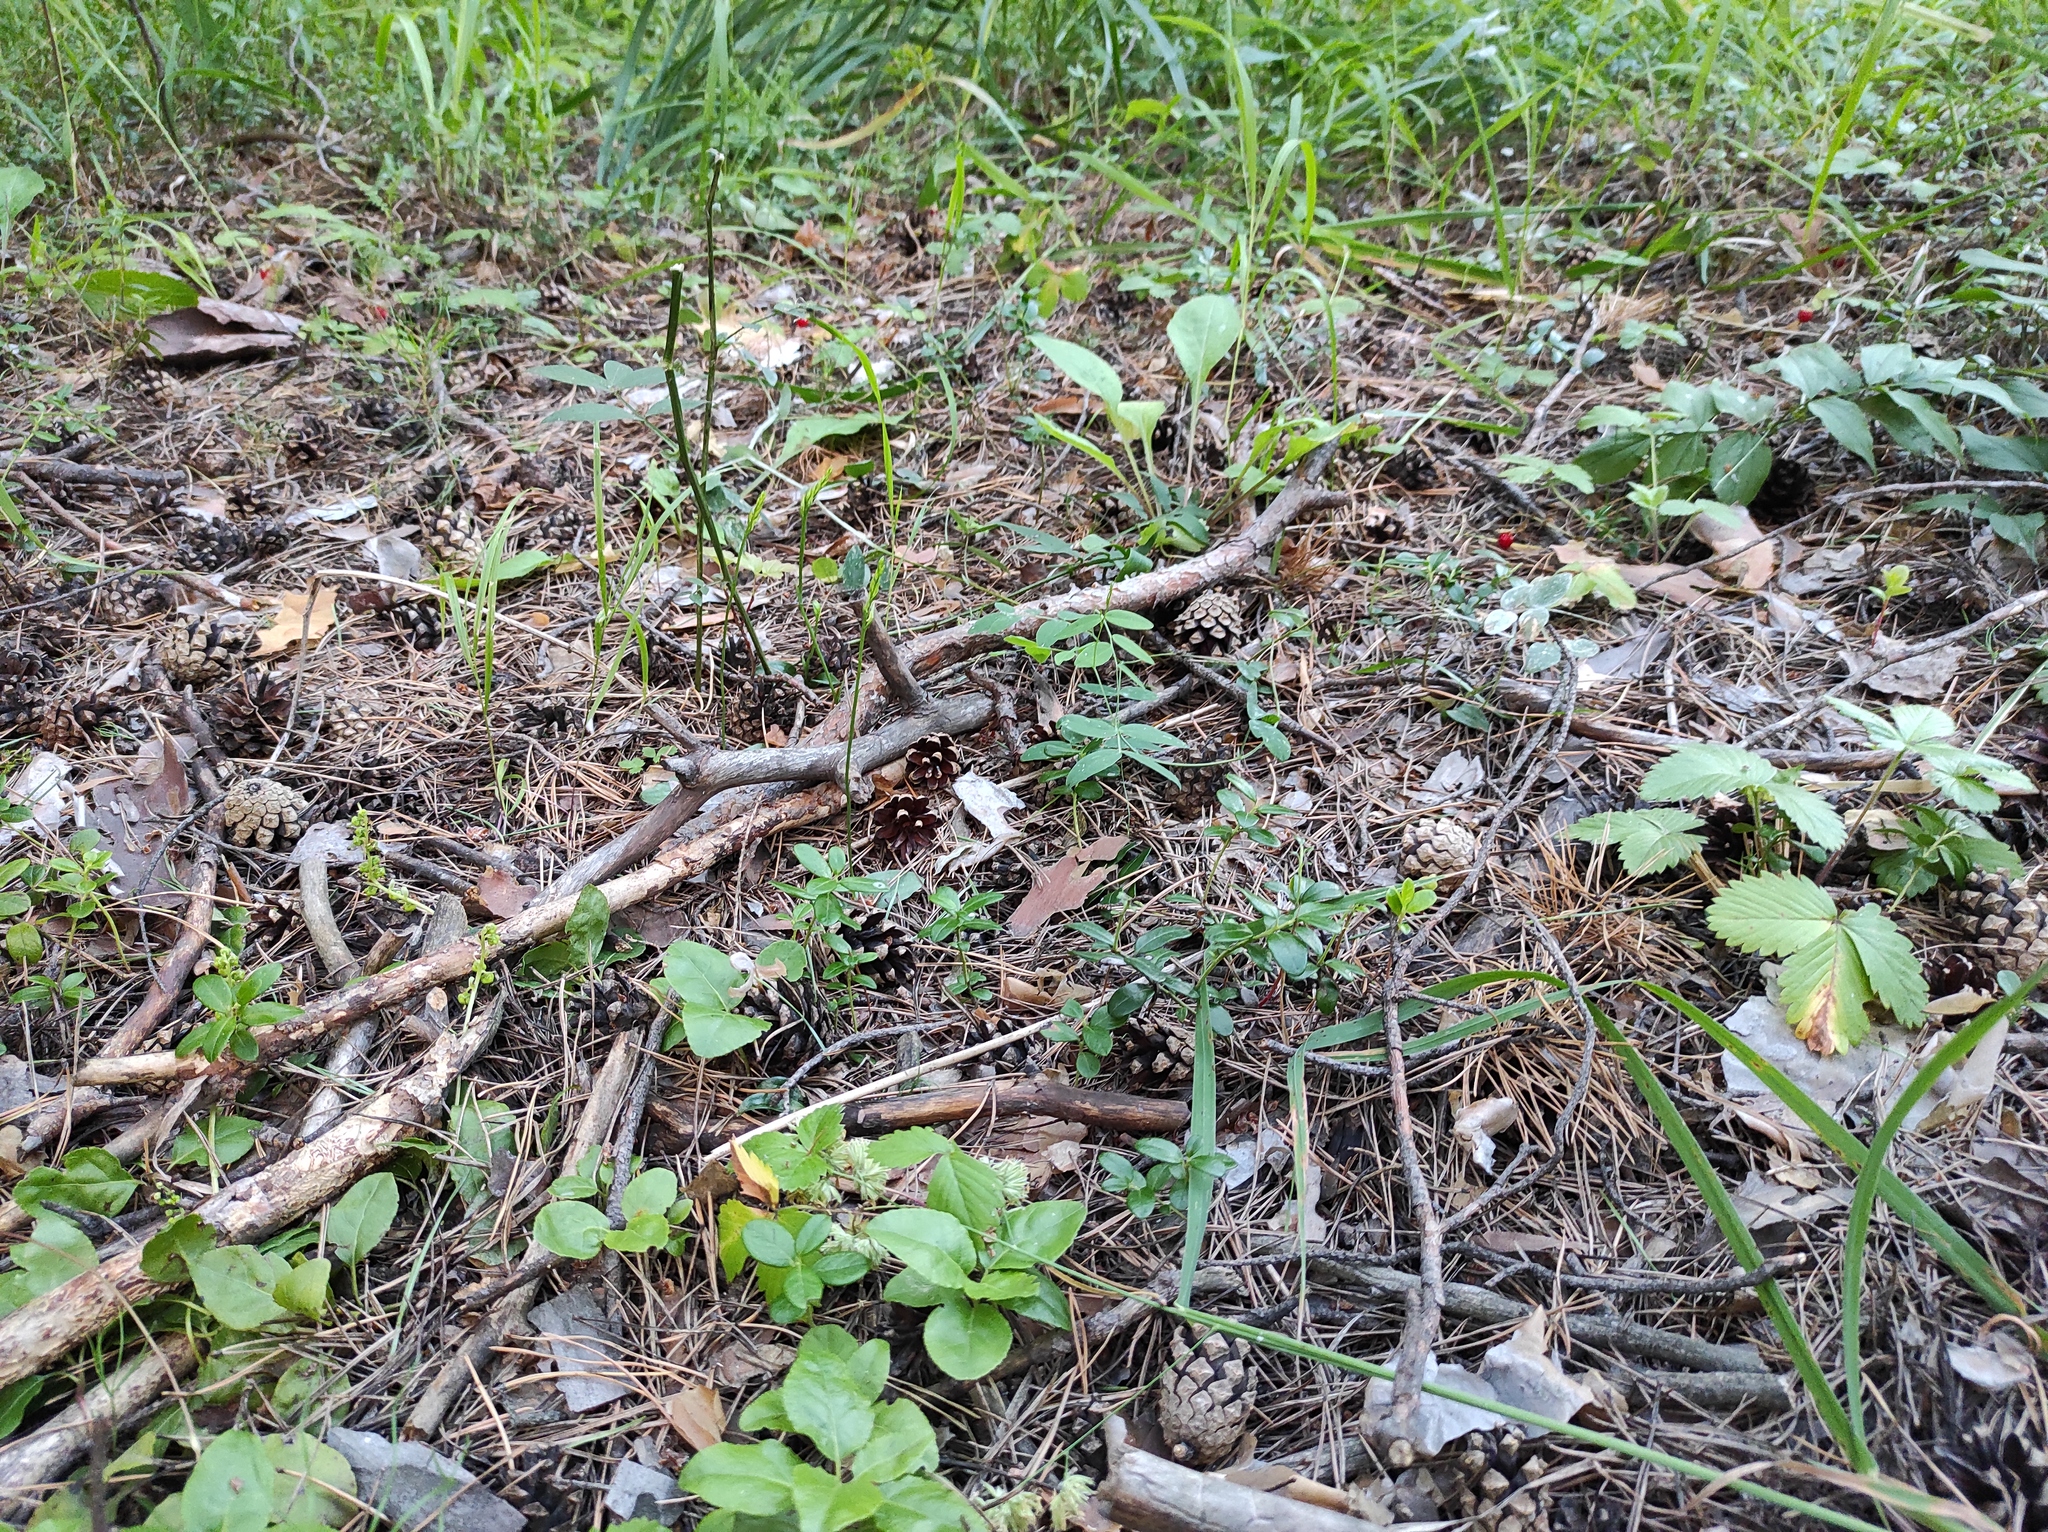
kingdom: Plantae
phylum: Tracheophyta
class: Magnoliopsida
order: Rosales
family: Rosaceae
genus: Fragaria
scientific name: Fragaria vesca
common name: Wild strawberry
